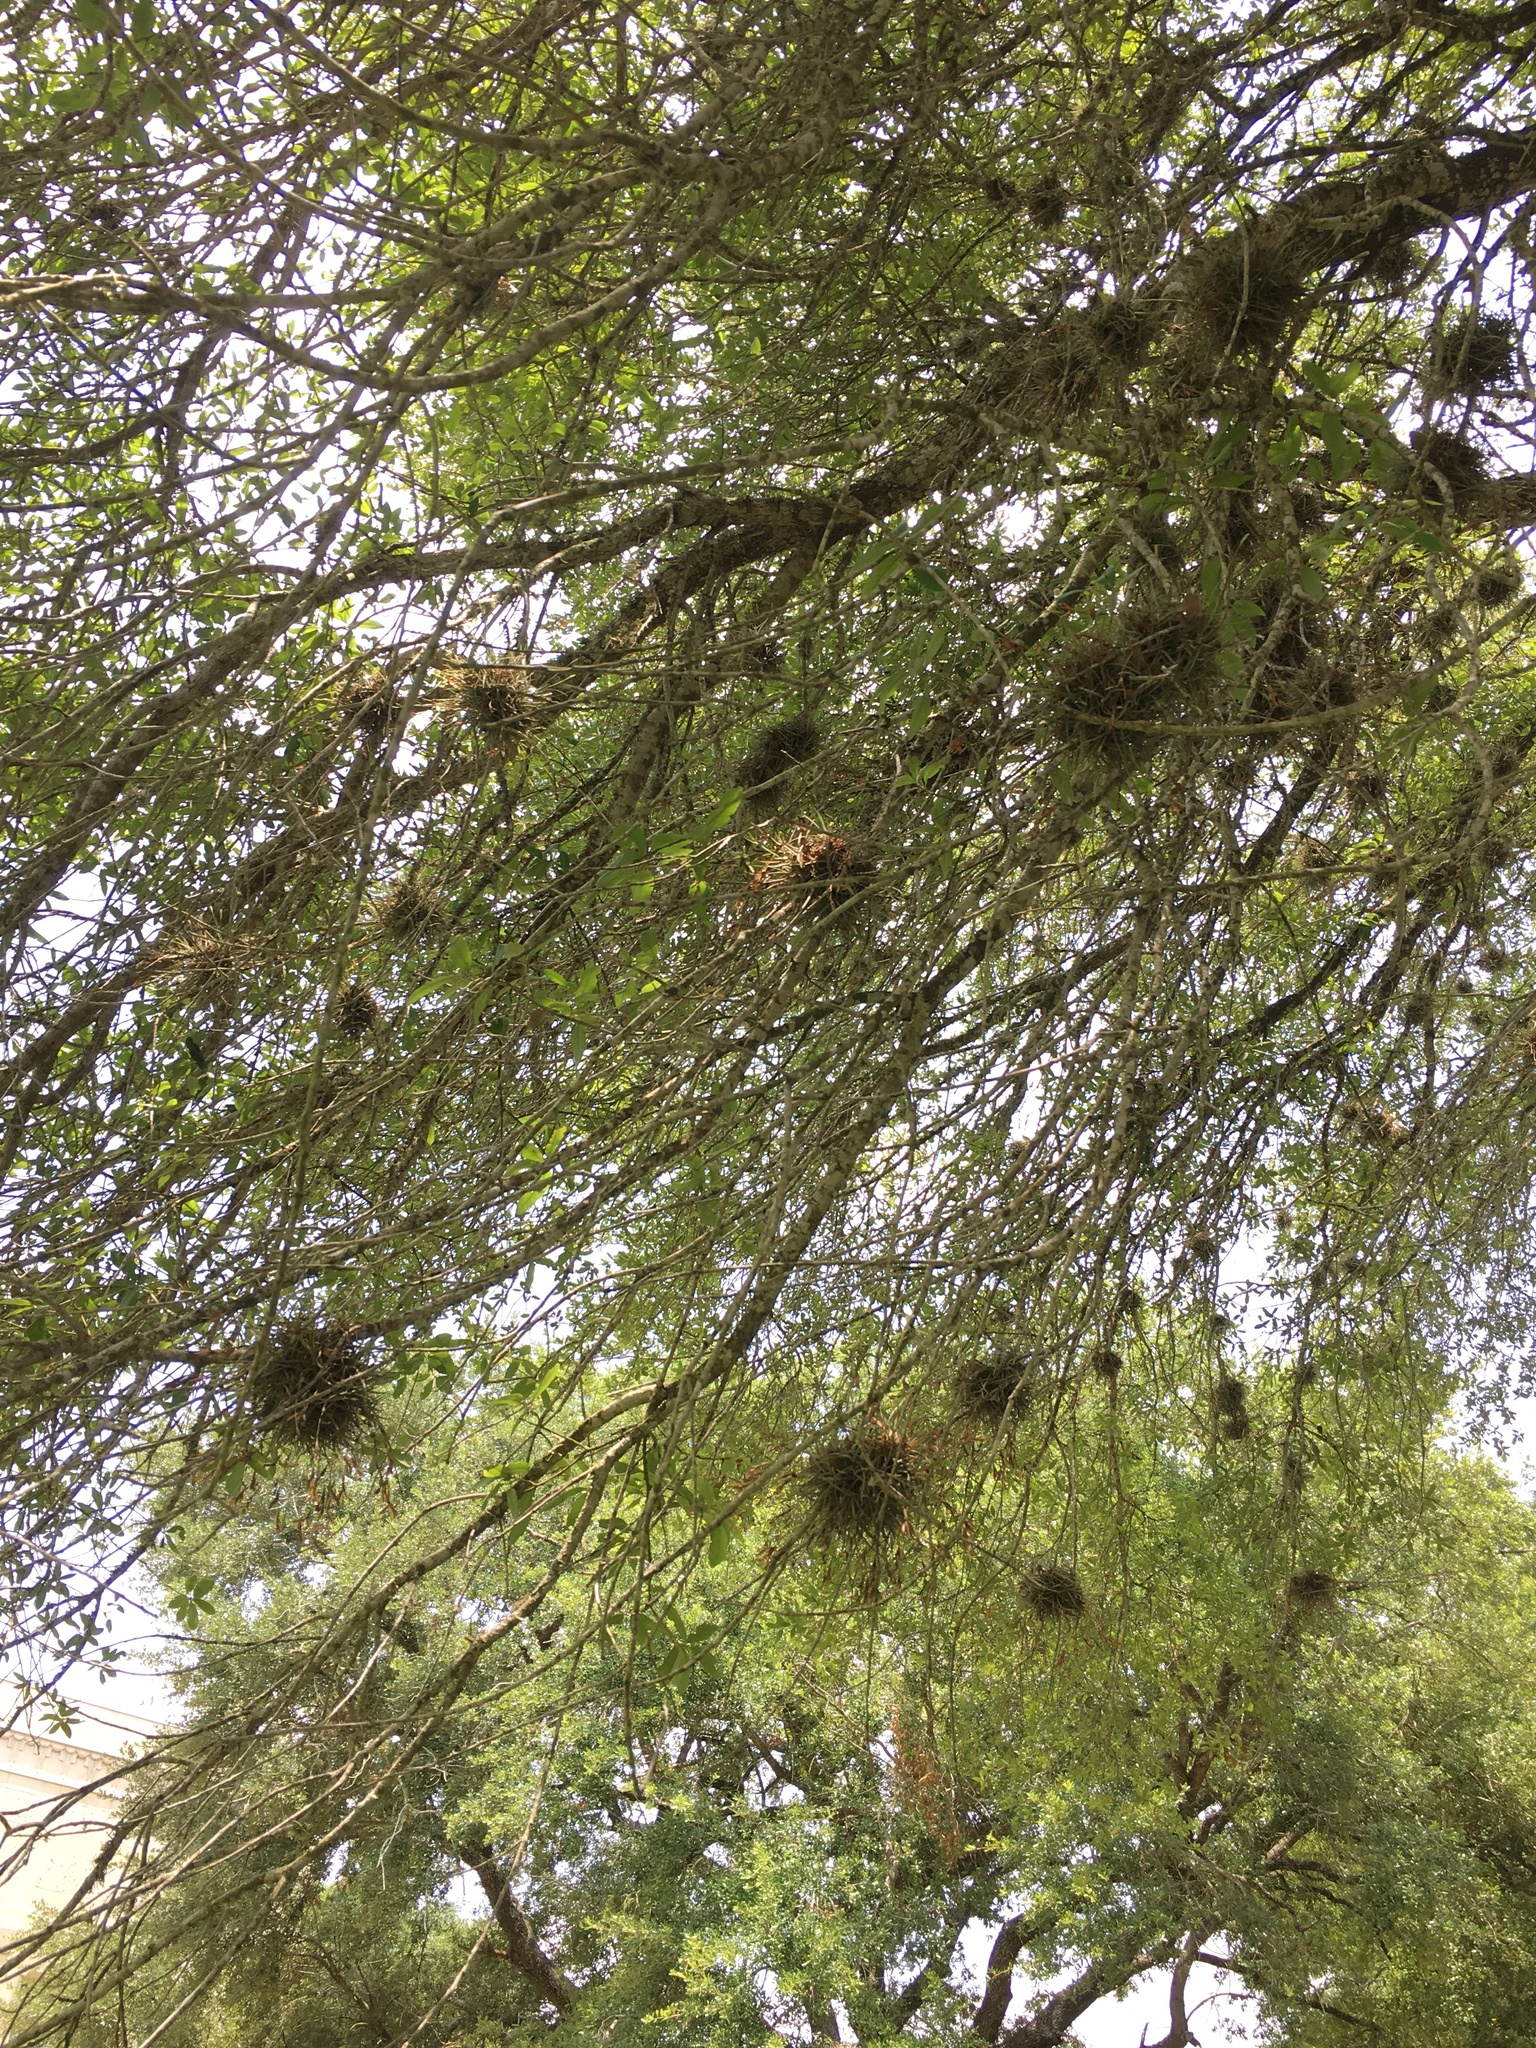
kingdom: Plantae
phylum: Tracheophyta
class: Liliopsida
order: Poales
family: Bromeliaceae
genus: Tillandsia
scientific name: Tillandsia recurvata
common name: Small ballmoss
